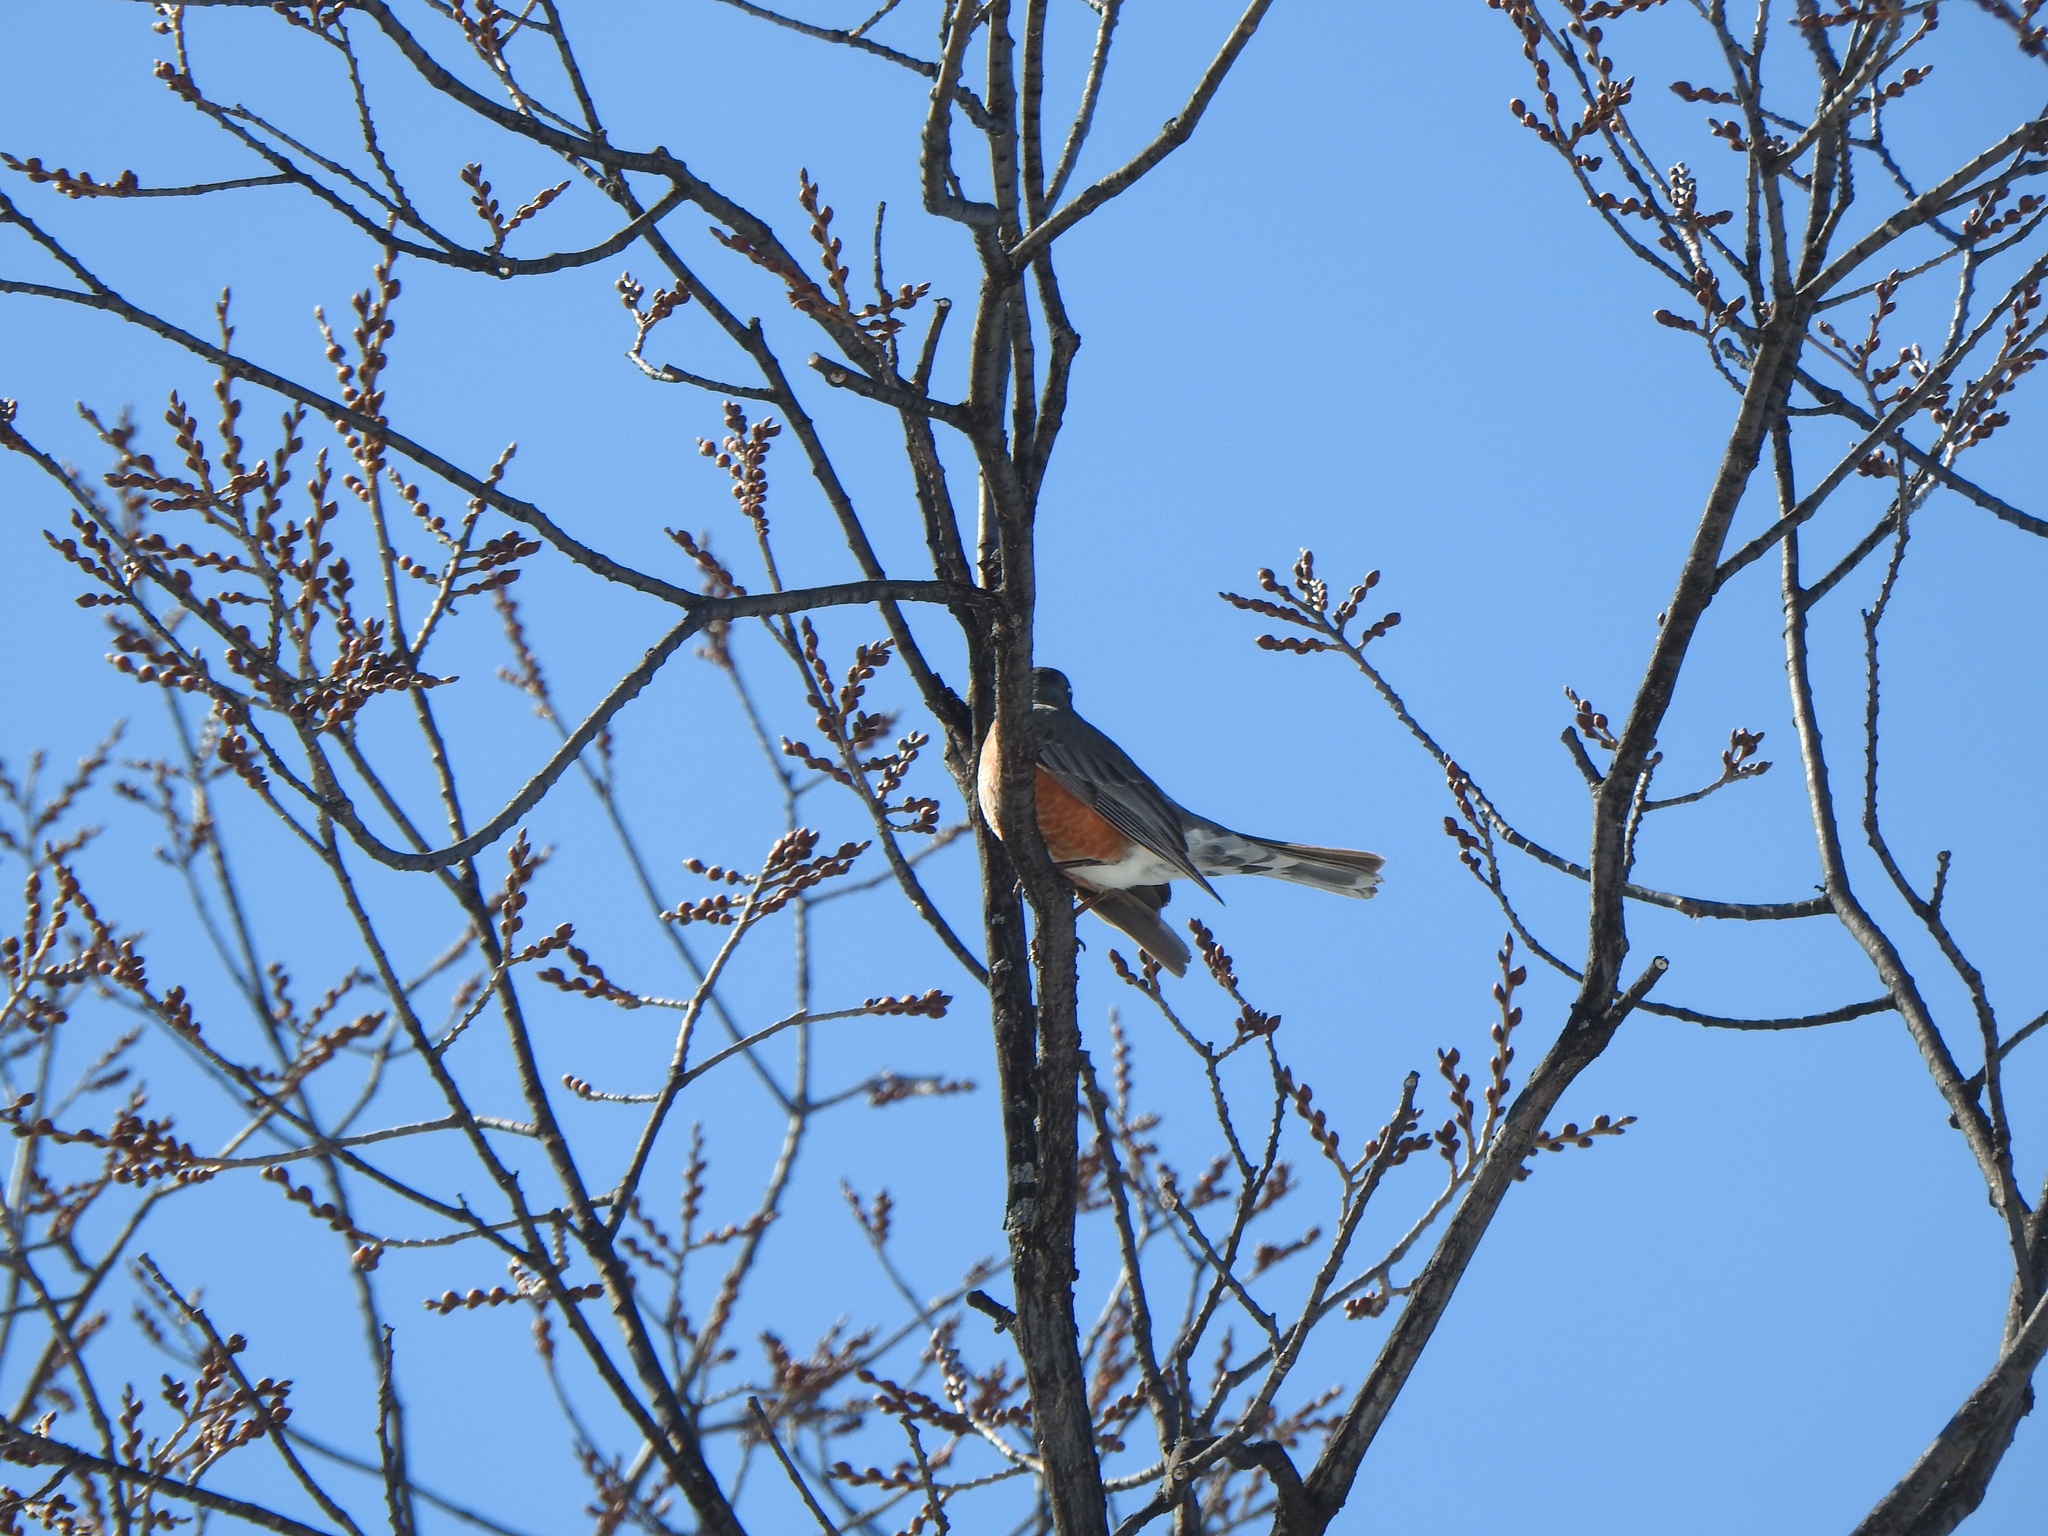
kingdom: Animalia
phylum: Chordata
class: Aves
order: Passeriformes
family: Turdidae
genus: Turdus
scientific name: Turdus migratorius
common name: American robin
